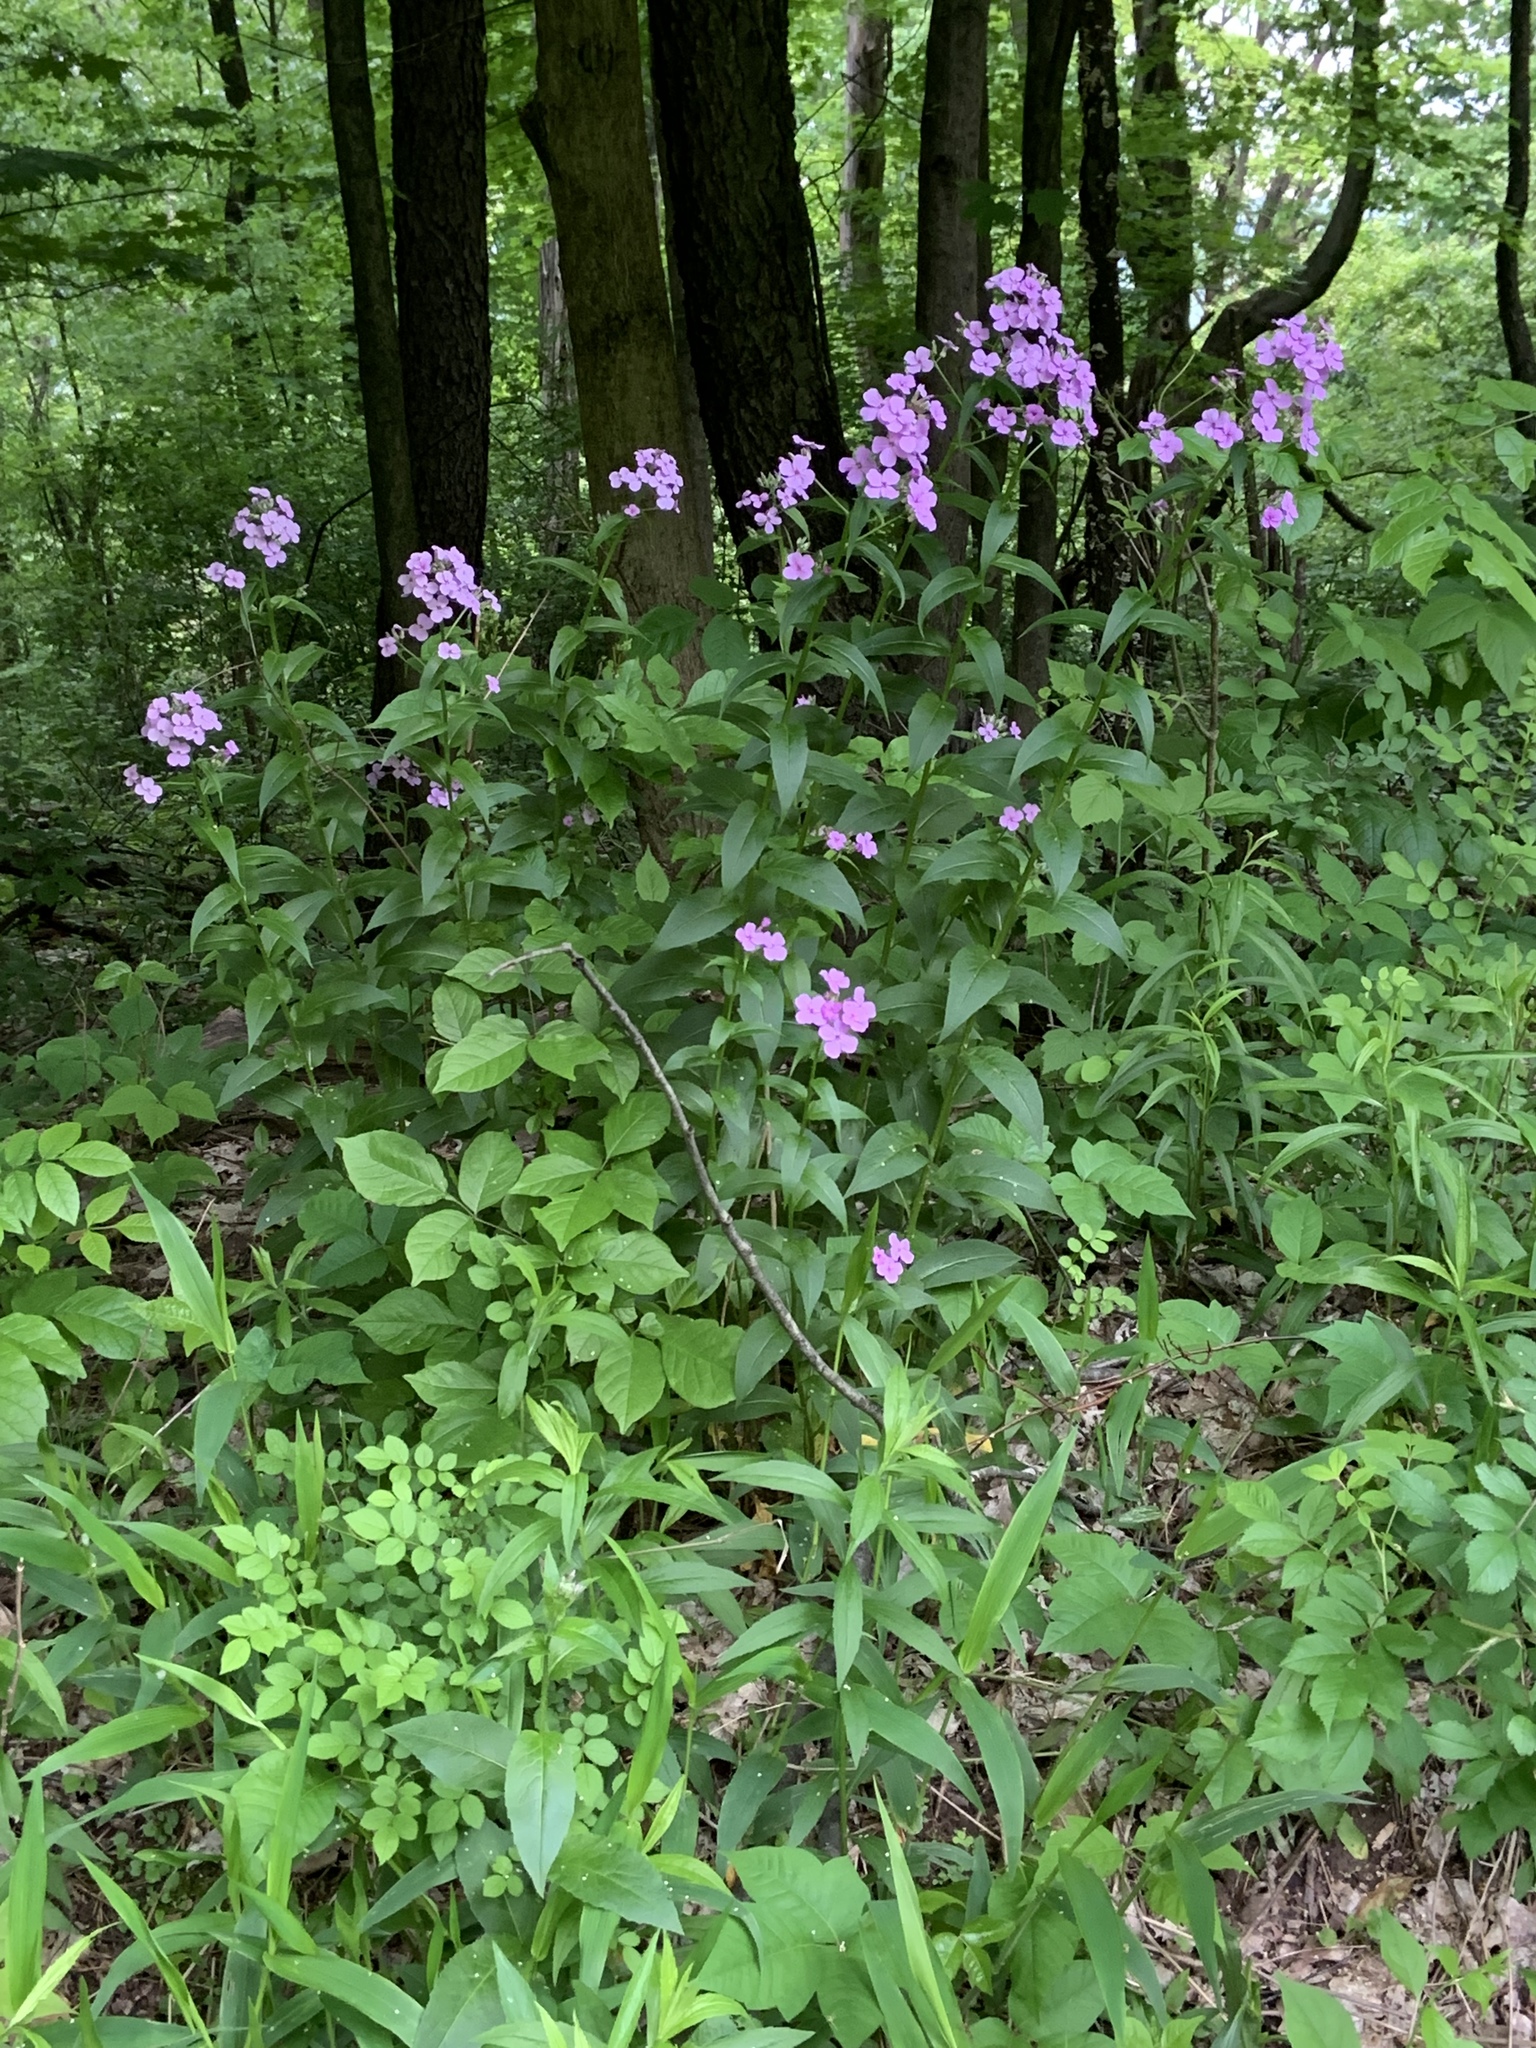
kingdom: Plantae
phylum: Tracheophyta
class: Magnoliopsida
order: Brassicales
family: Brassicaceae
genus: Hesperis
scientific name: Hesperis matronalis
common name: Dame's-violet
